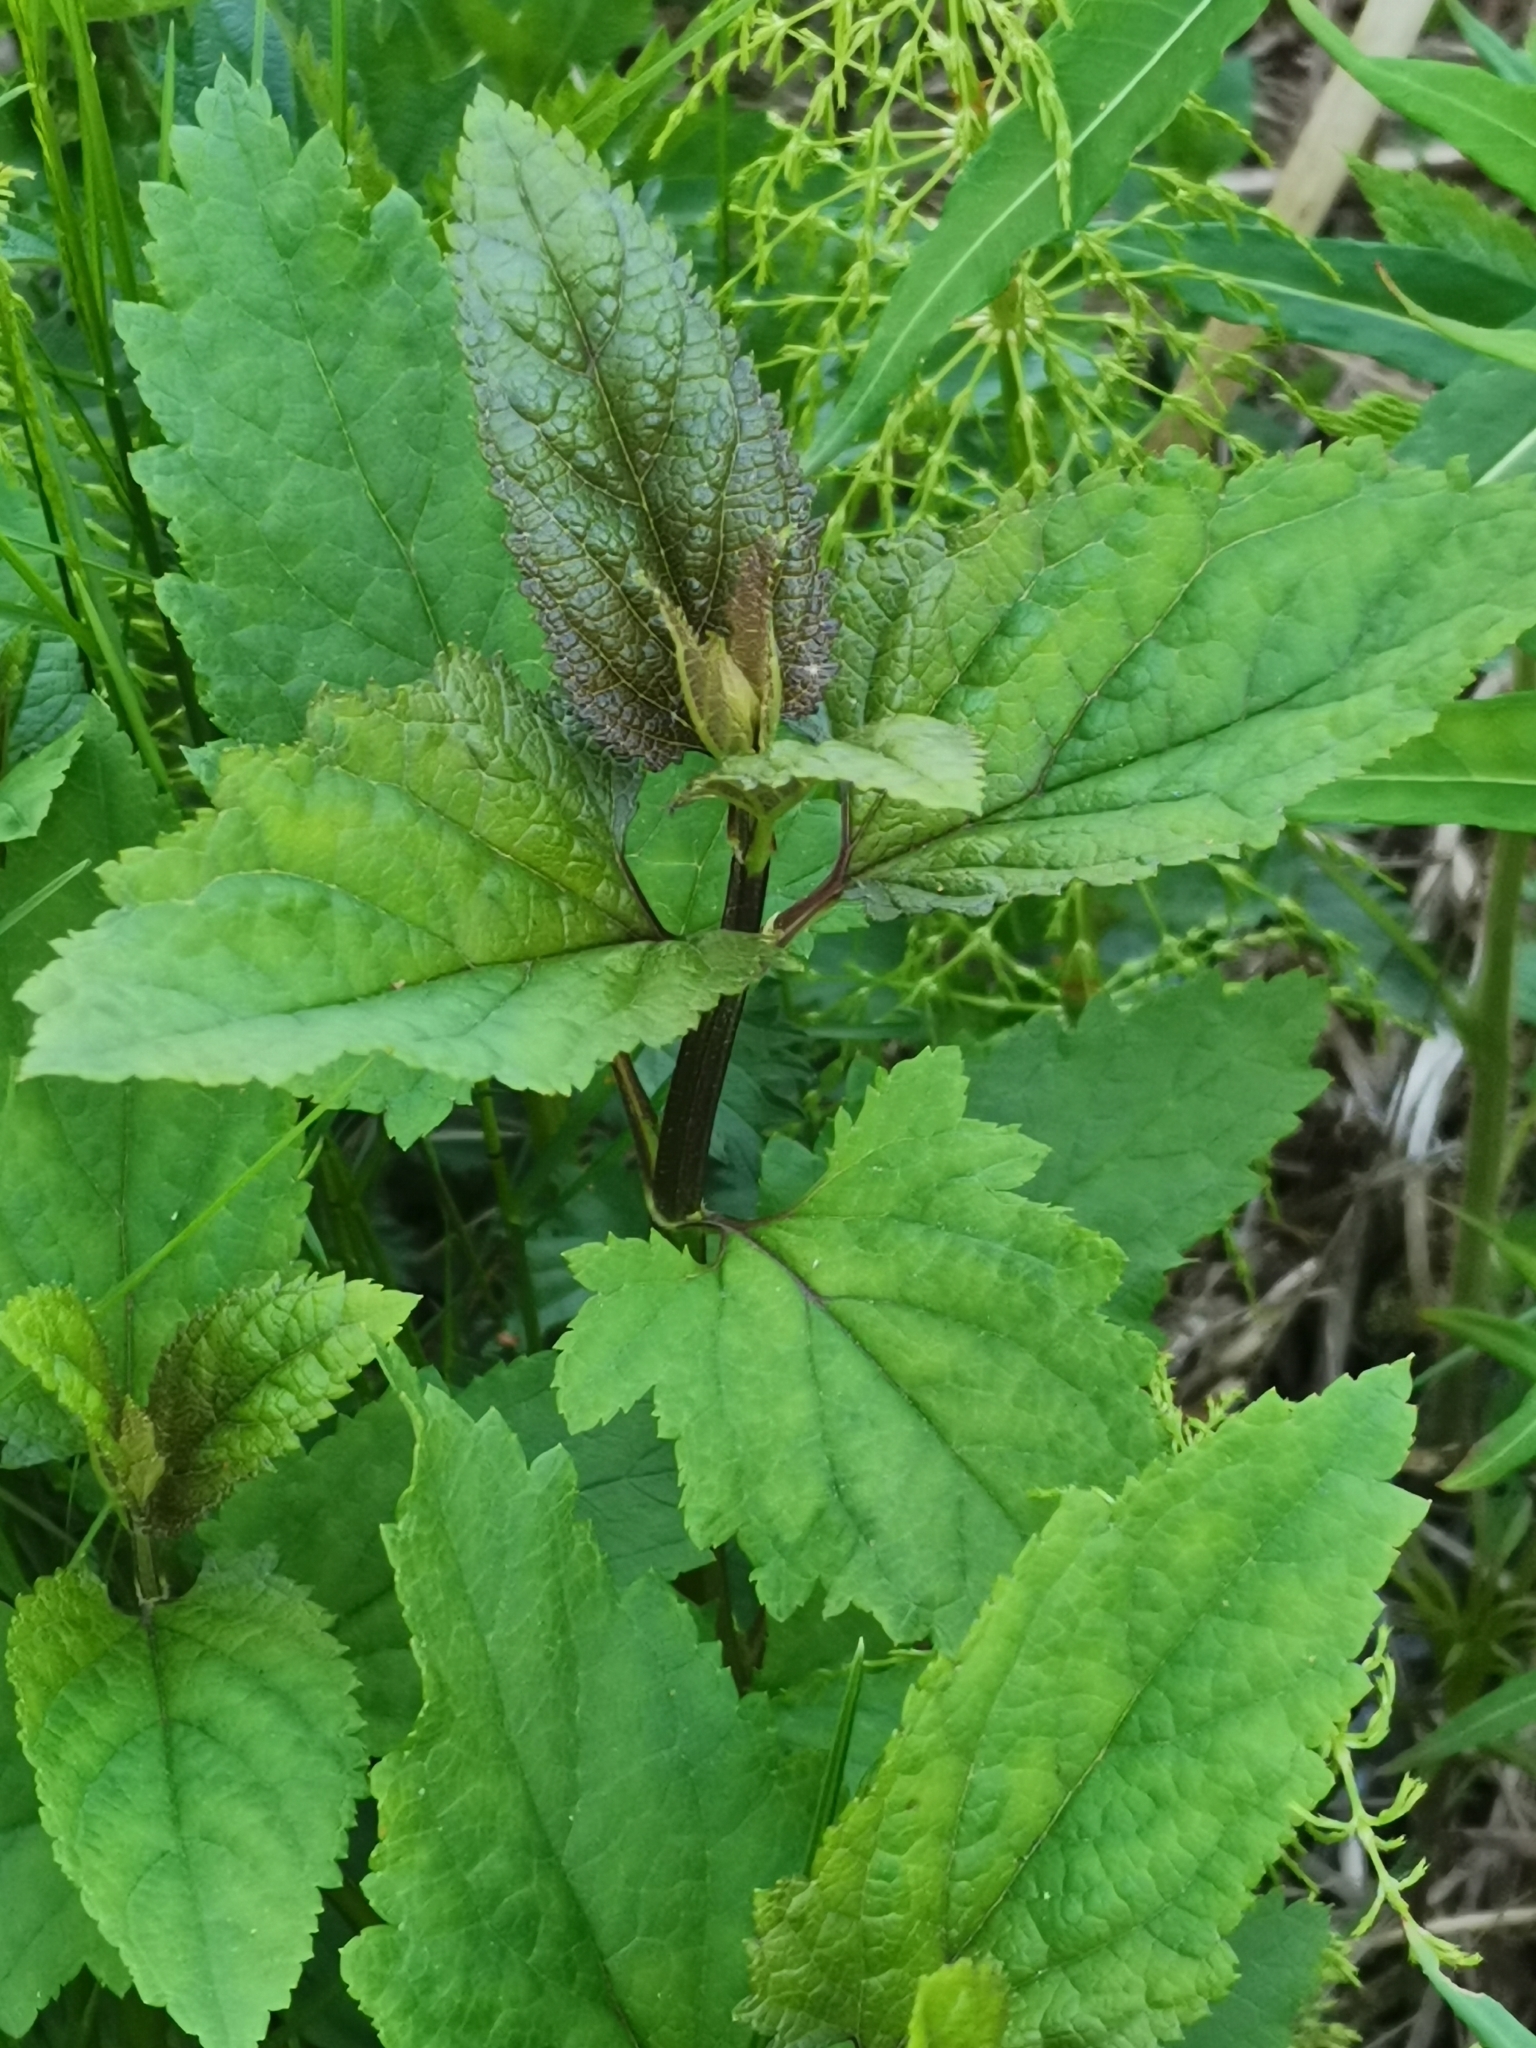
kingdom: Plantae
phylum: Tracheophyta
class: Magnoliopsida
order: Lamiales
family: Scrophulariaceae
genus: Scrophularia
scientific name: Scrophularia nodosa
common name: Common figwort
